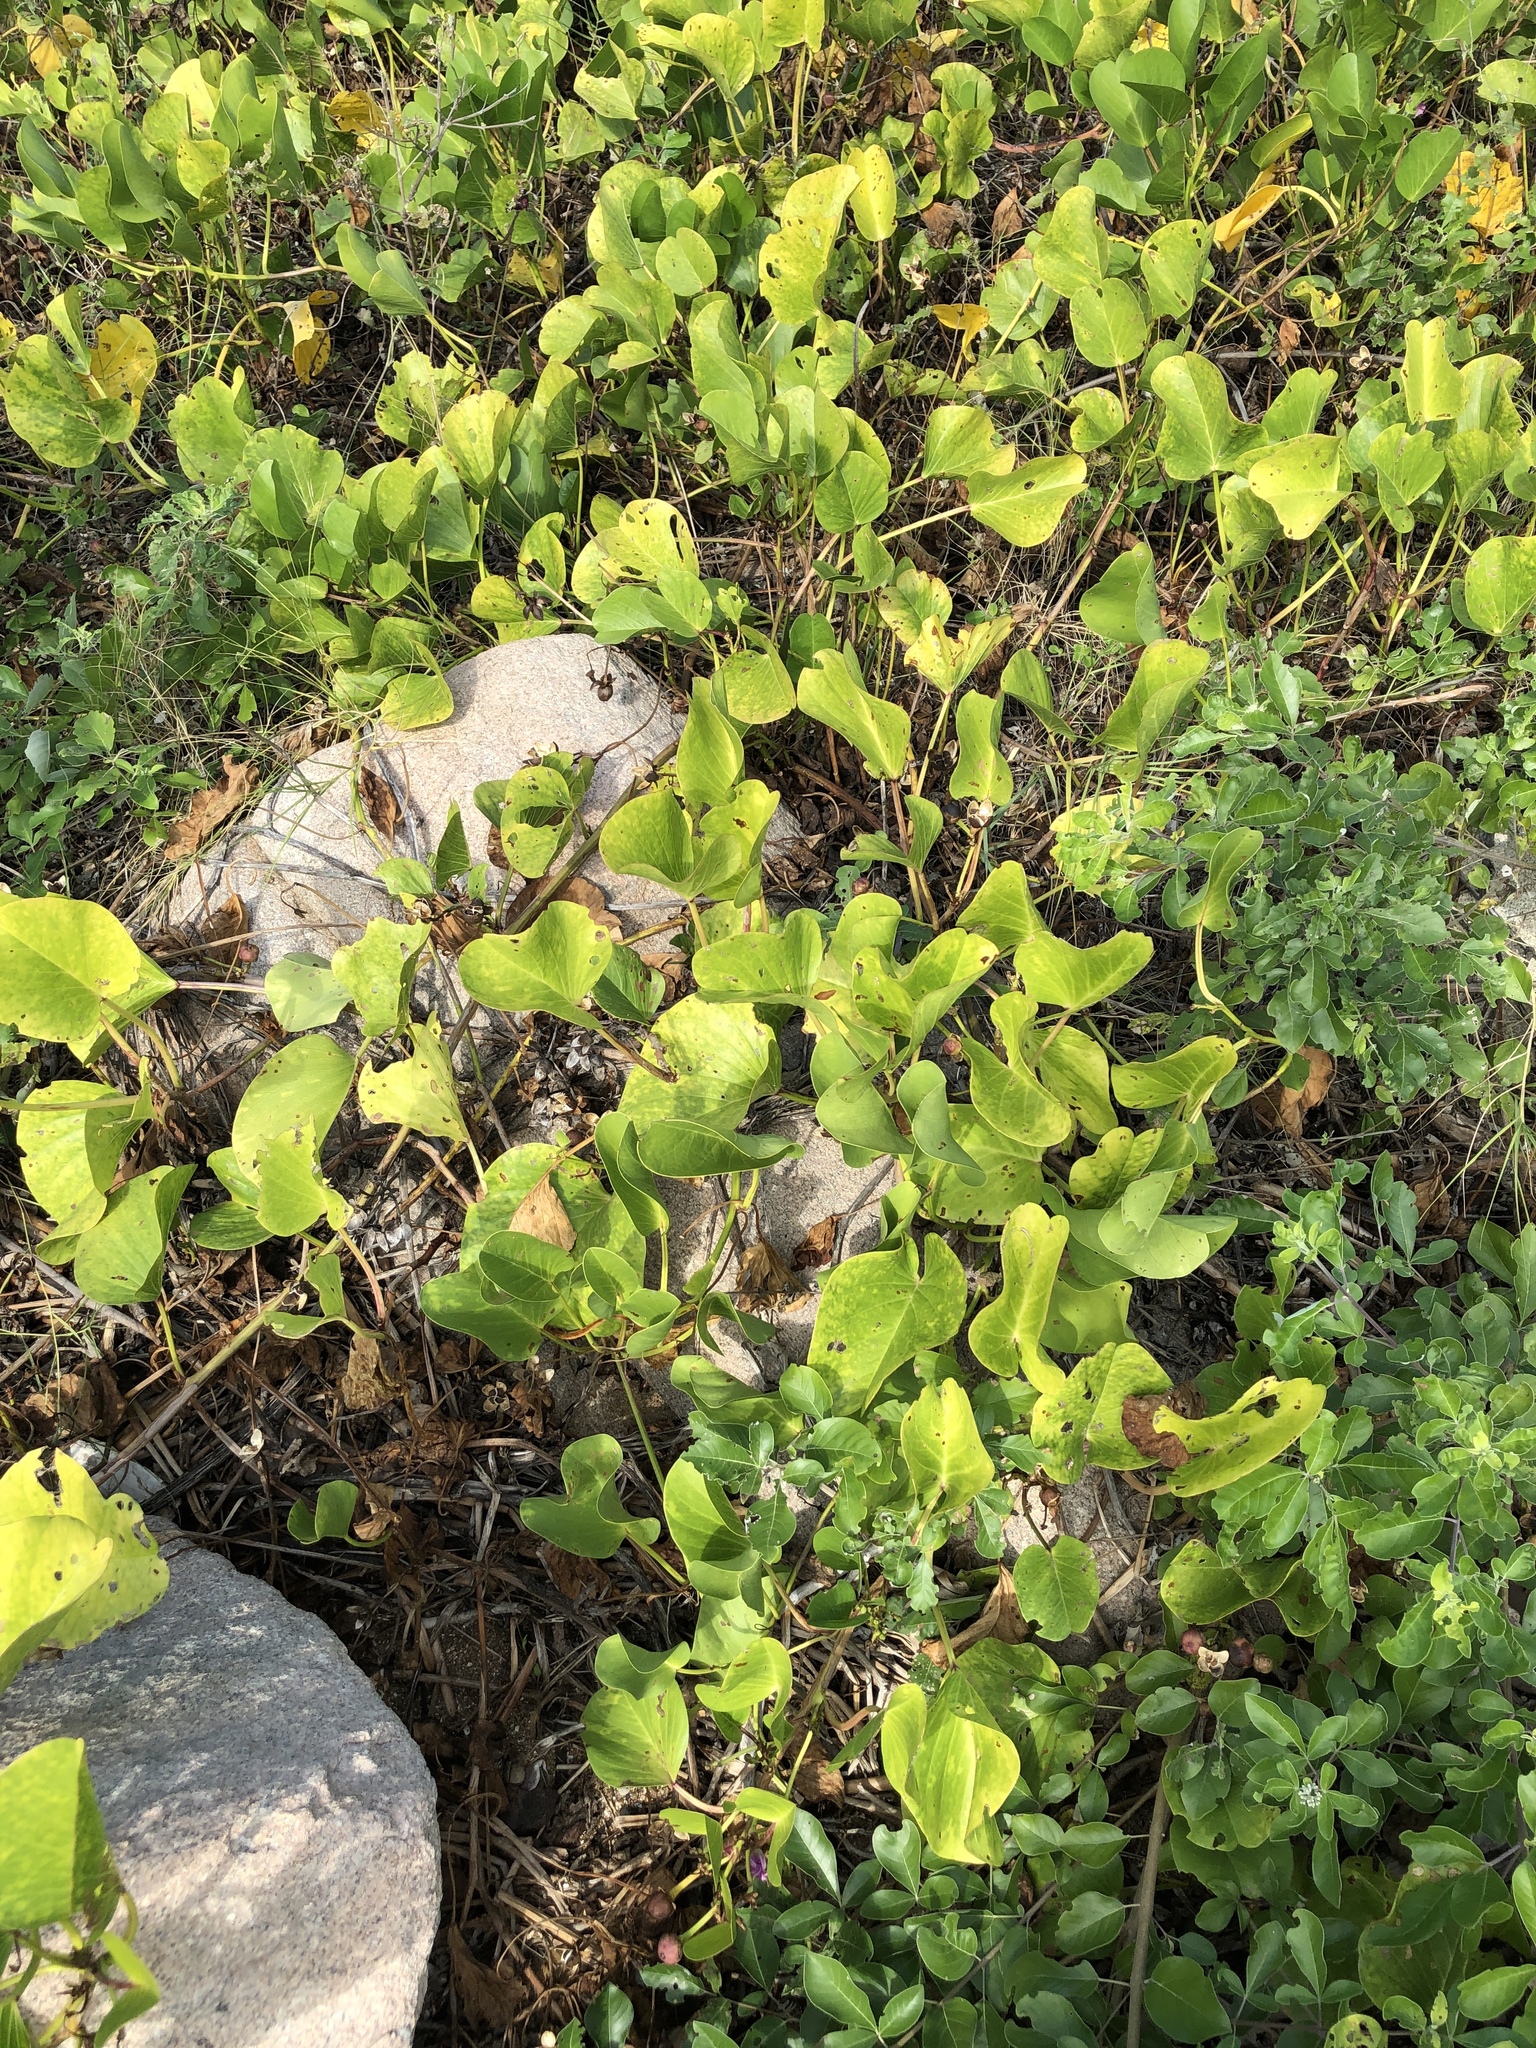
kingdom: Plantae
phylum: Tracheophyta
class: Magnoliopsida
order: Solanales
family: Convolvulaceae
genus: Ipomoea
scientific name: Ipomoea pes-caprae
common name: Beach morning glory
